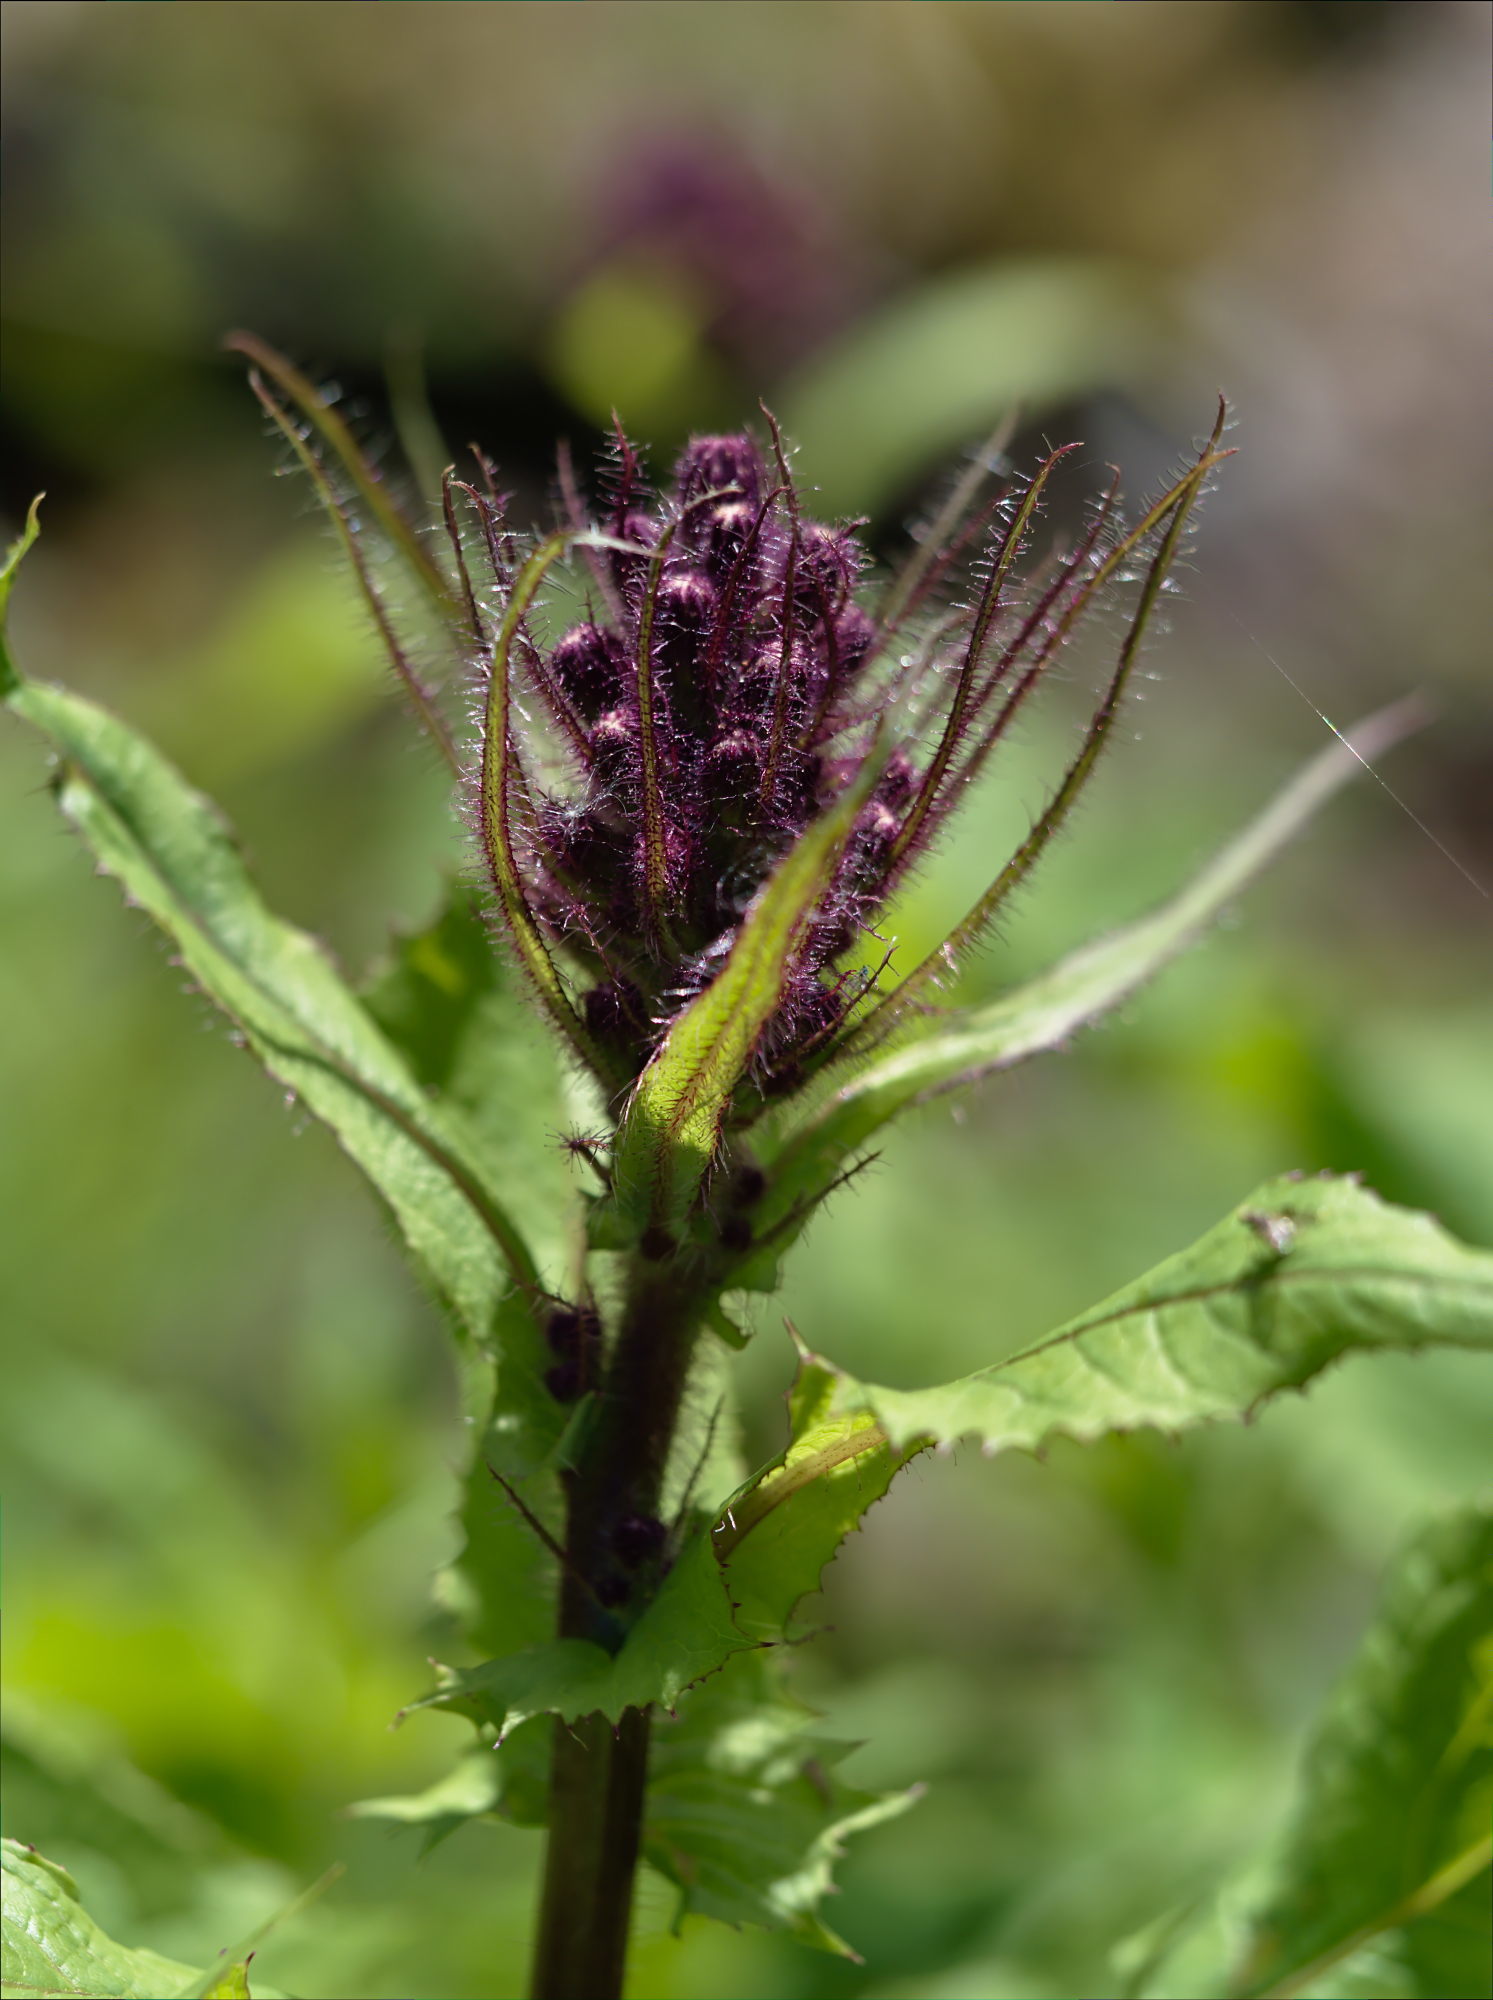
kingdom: Plantae
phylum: Tracheophyta
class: Magnoliopsida
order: Asterales
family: Asteraceae
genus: Cicerbita
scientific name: Cicerbita alpina
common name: Alpine blue-sow-thistle
